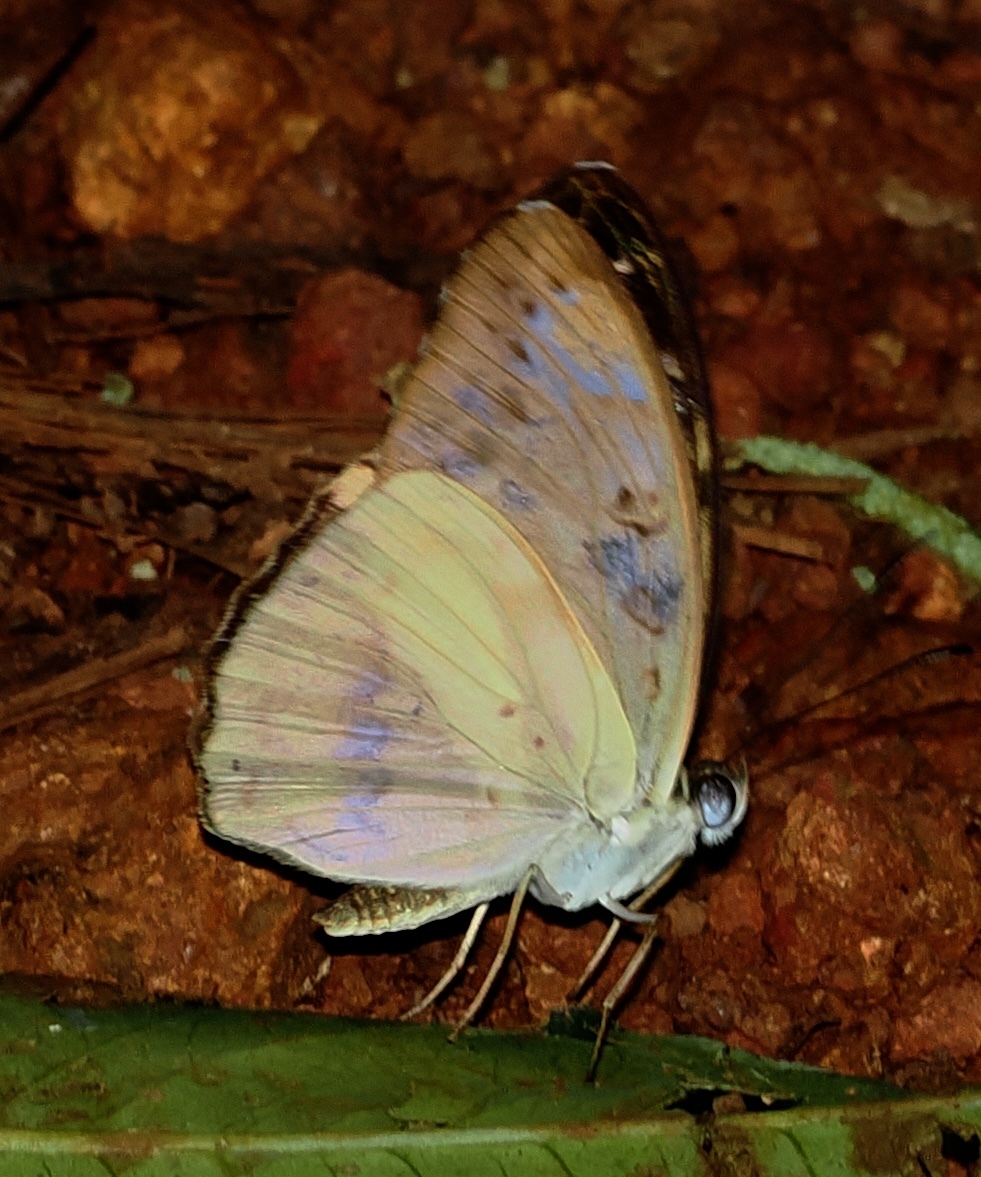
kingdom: Animalia
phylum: Arthropoda
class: Insecta
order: Lepidoptera
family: Nymphalidae
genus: Catuna
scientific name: Catuna
